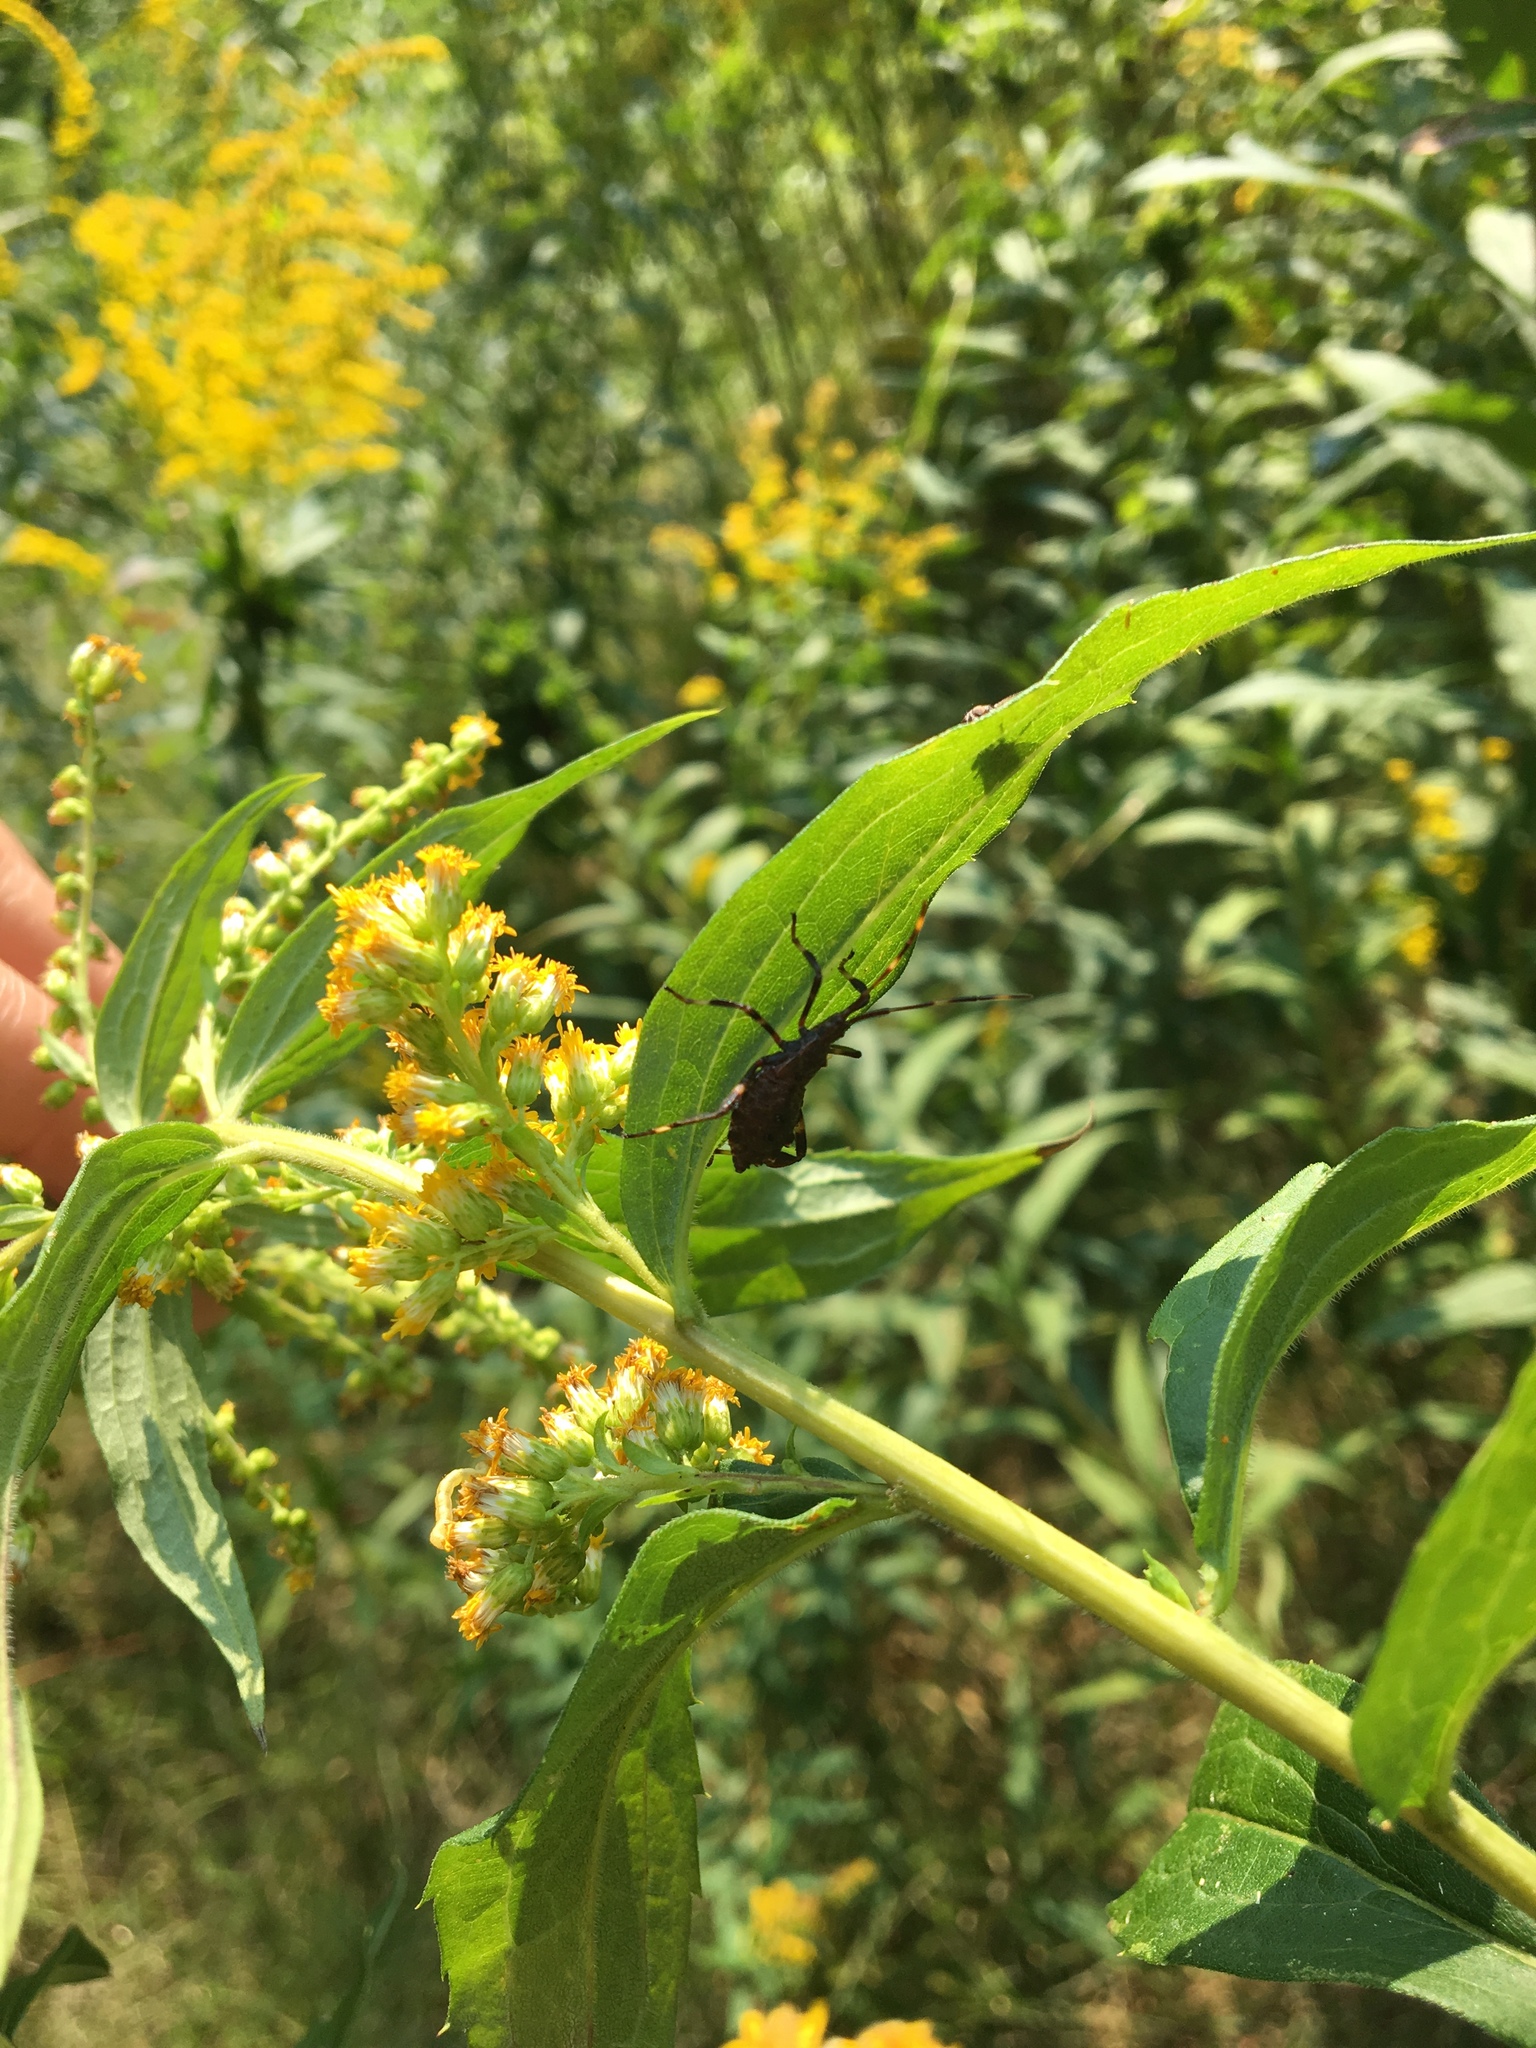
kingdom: Animalia
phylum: Arthropoda
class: Insecta
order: Hemiptera
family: Coreidae
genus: Acanthocephala
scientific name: Acanthocephala terminalis
